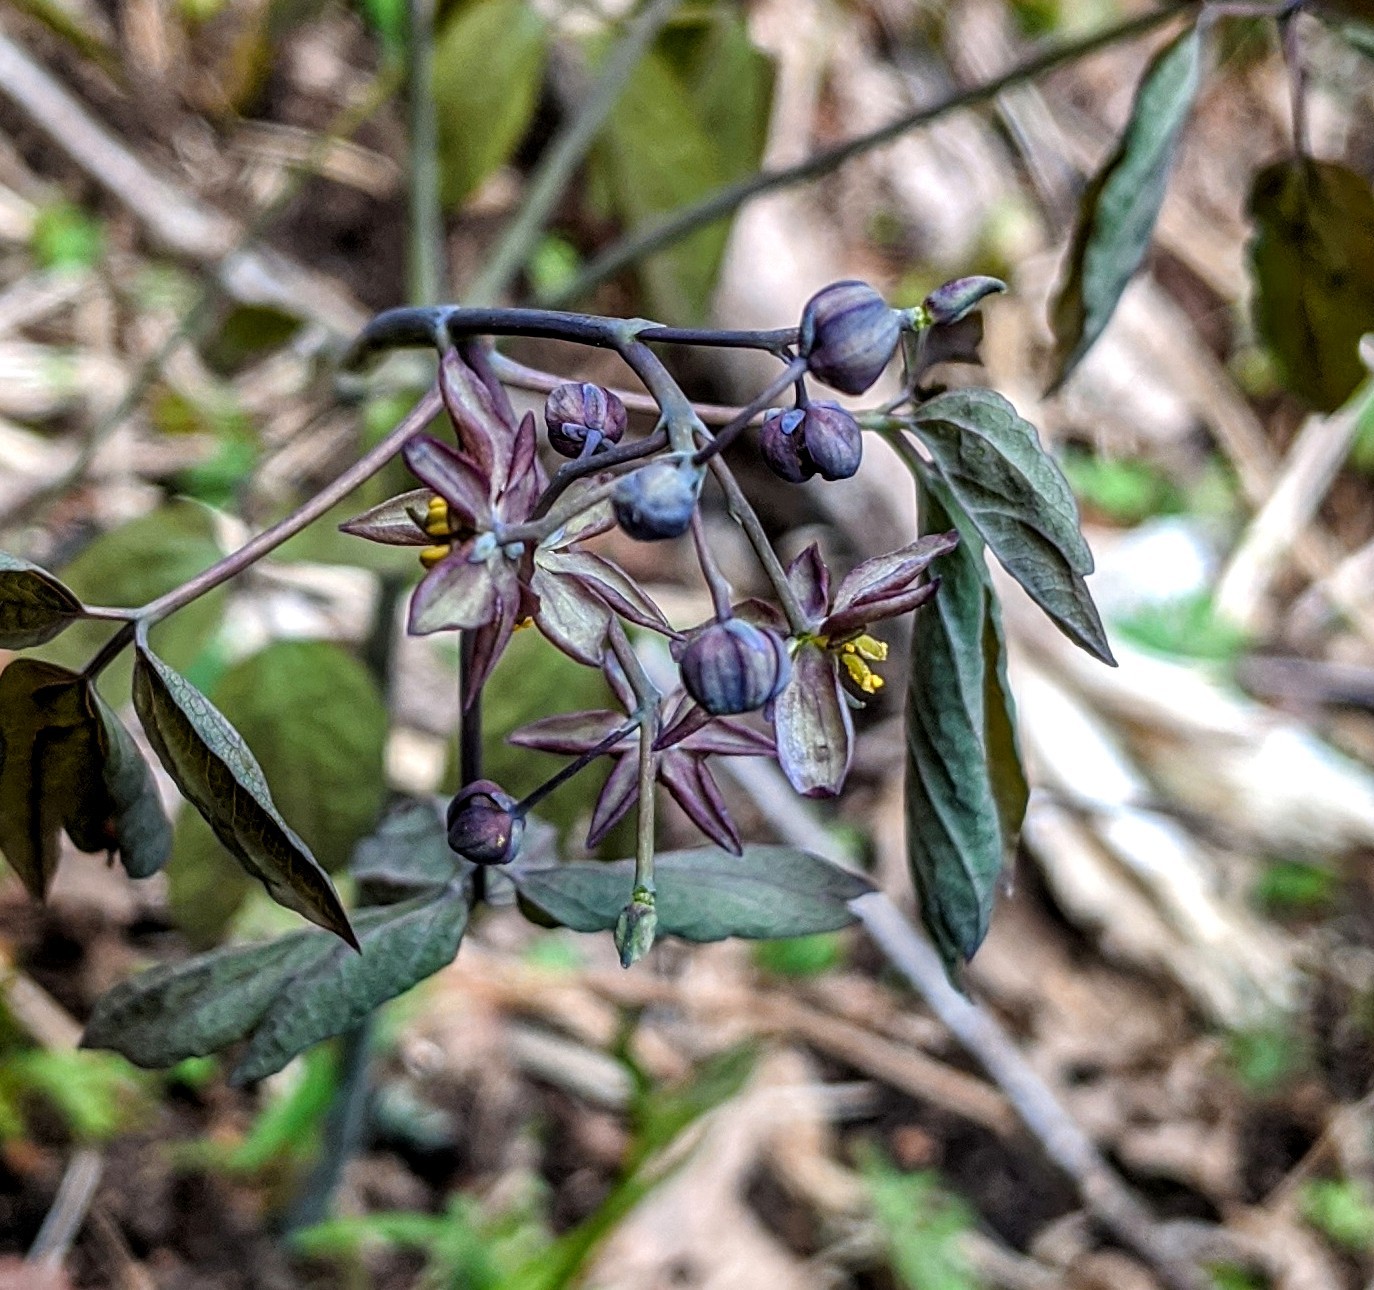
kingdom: Plantae
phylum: Tracheophyta
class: Magnoliopsida
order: Ranunculales
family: Berberidaceae
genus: Caulophyllum
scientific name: Caulophyllum giganteum
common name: Blue cohosh
